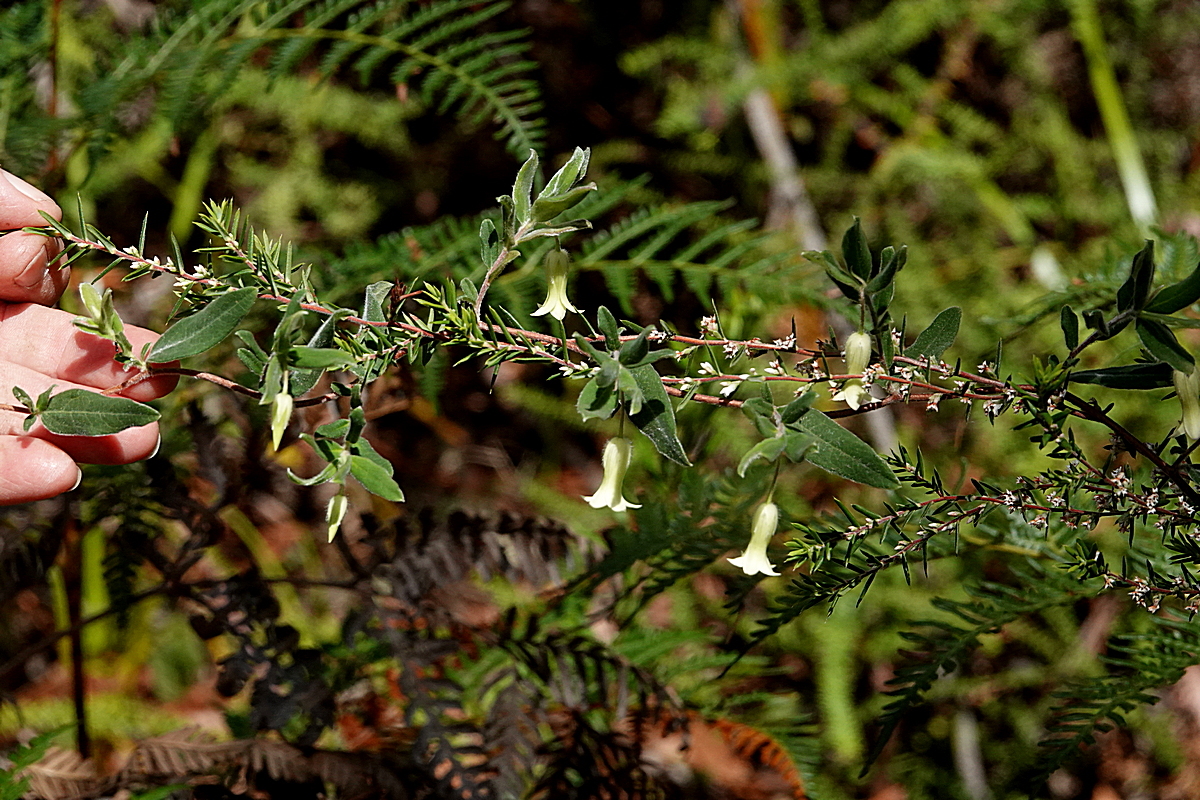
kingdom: Plantae
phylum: Tracheophyta
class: Magnoliopsida
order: Apiales
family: Pittosporaceae
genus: Billardiera
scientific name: Billardiera mutabilis
